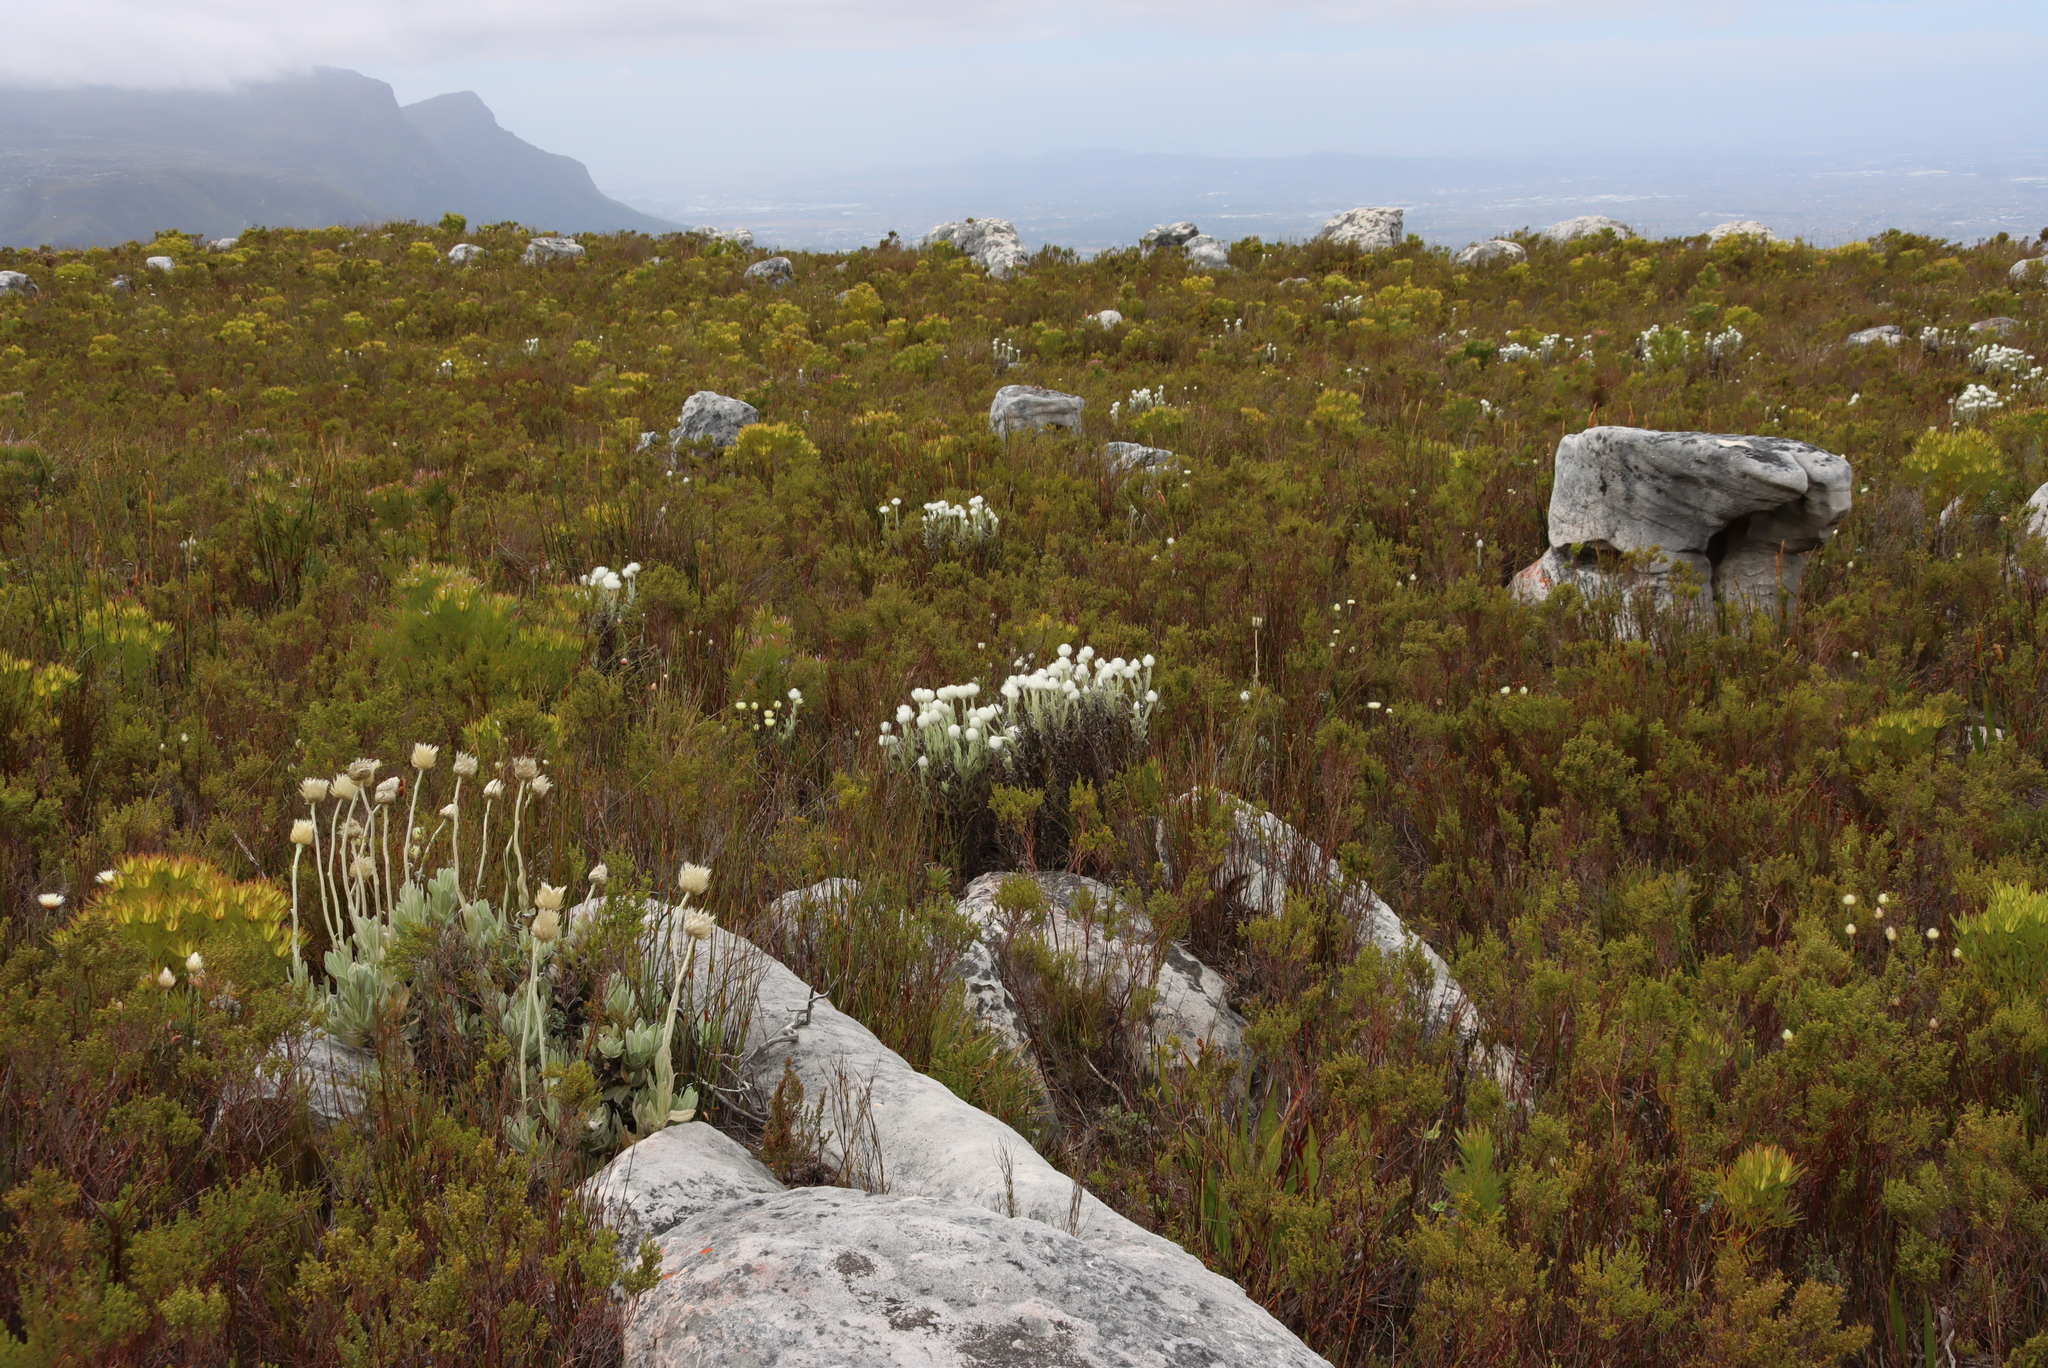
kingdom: Plantae
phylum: Tracheophyta
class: Magnoliopsida
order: Asterales
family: Asteraceae
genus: Edmondia
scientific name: Edmondia sesamoides
